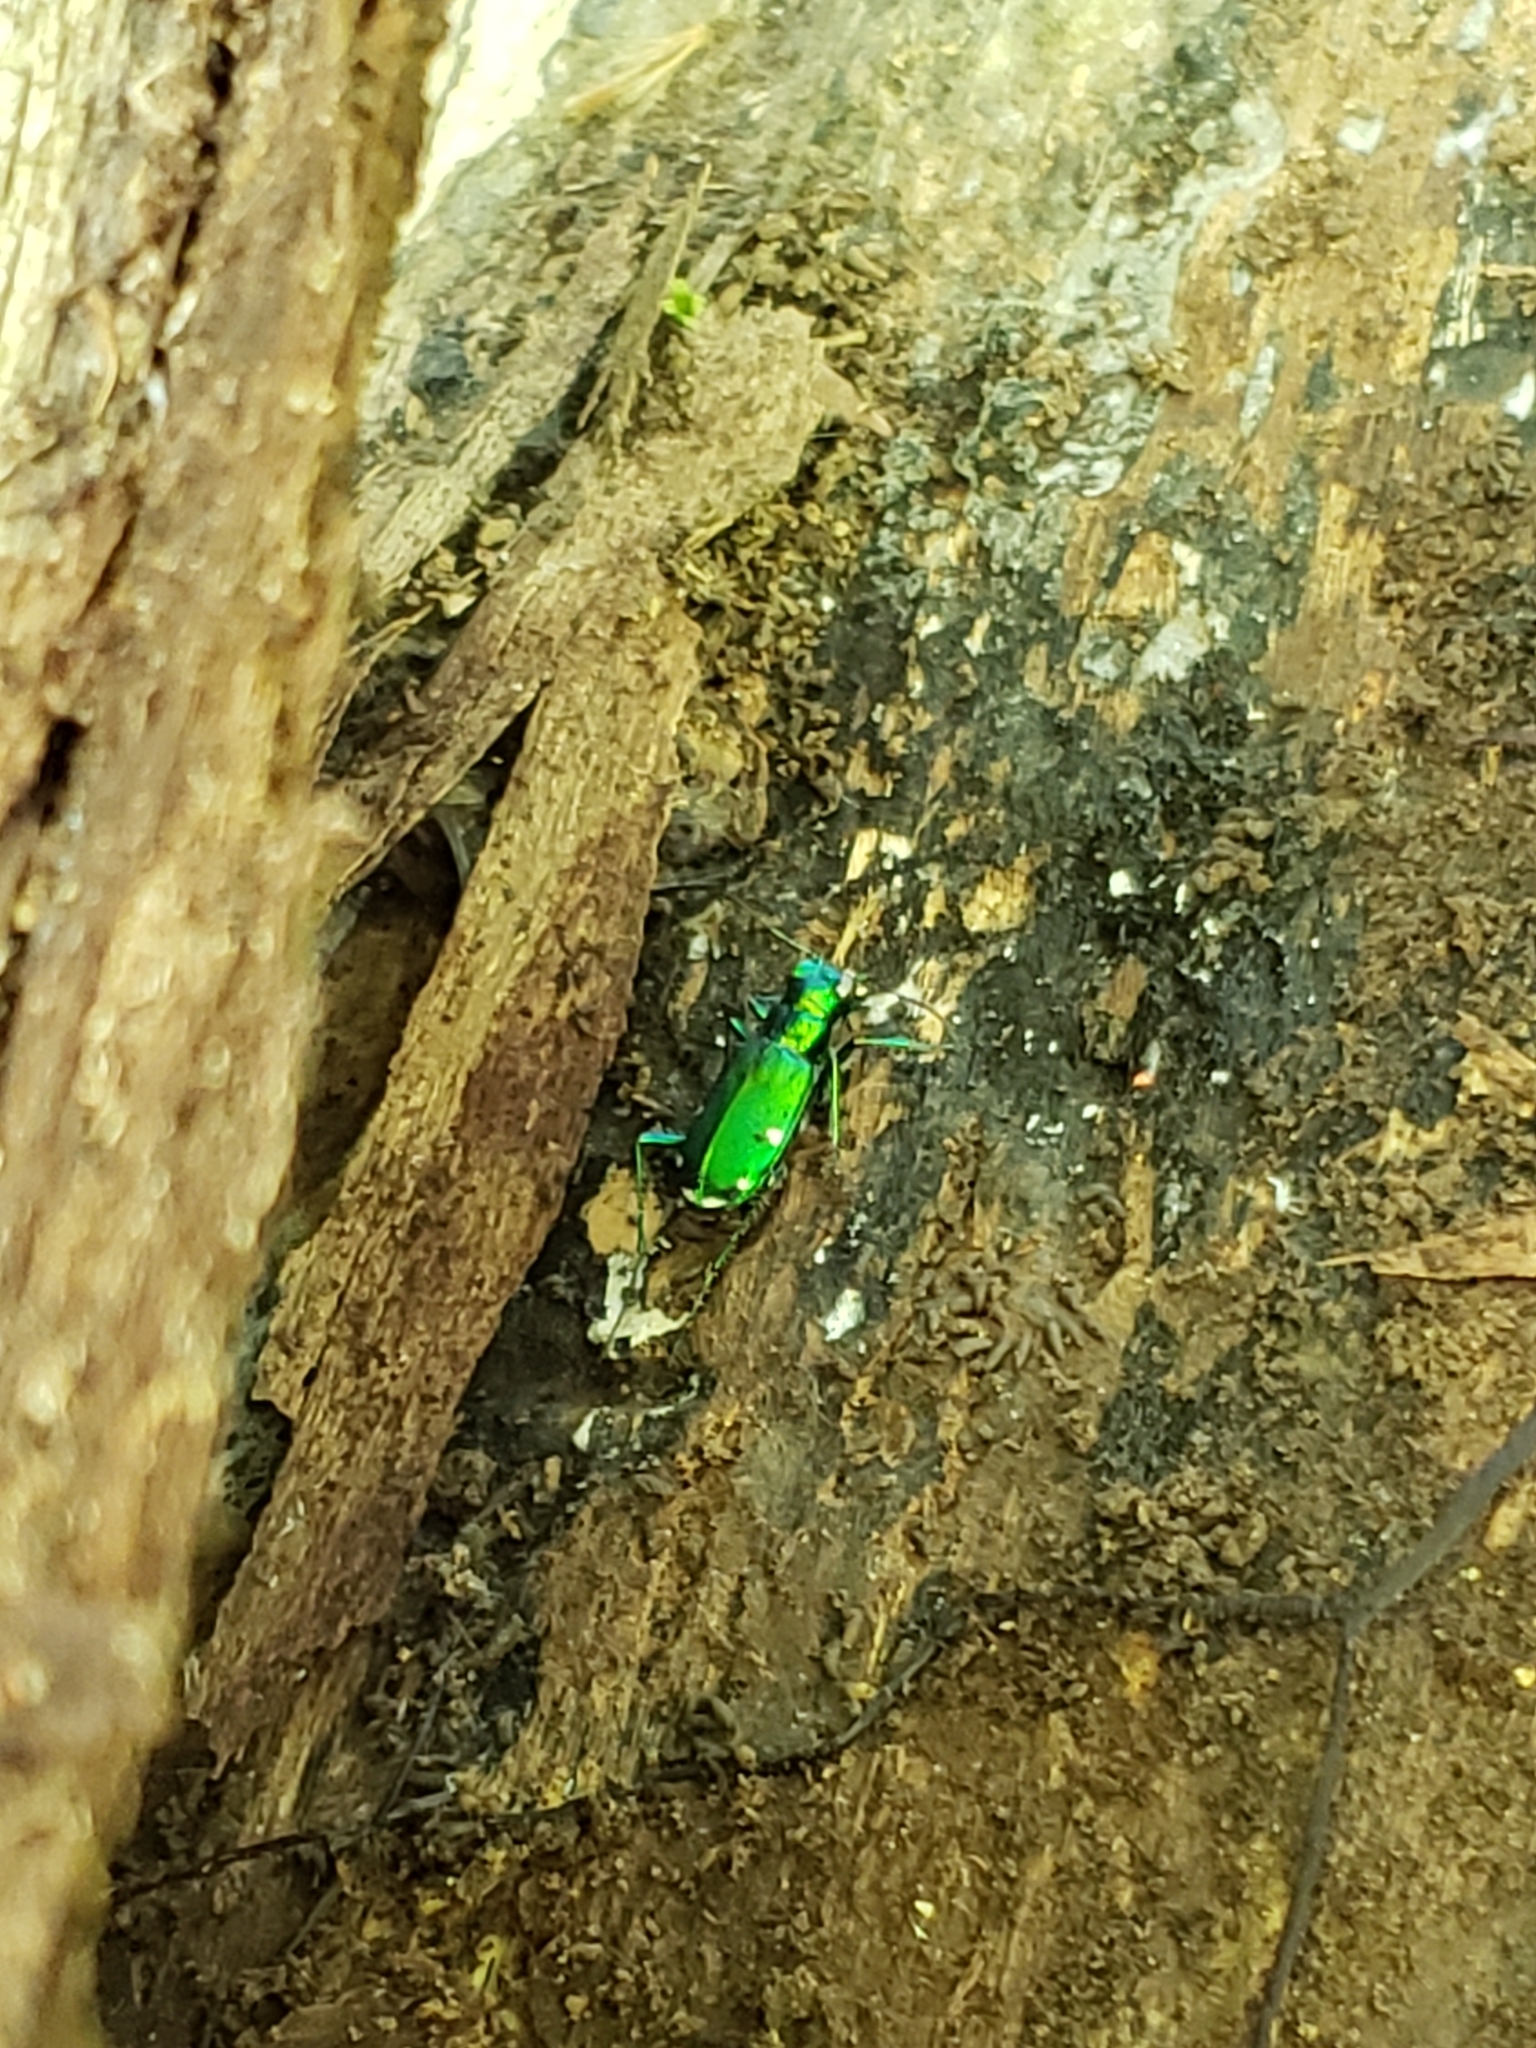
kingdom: Animalia
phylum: Arthropoda
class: Insecta
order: Coleoptera
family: Carabidae
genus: Cicindela
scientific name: Cicindela sexguttata
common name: Six-spotted tiger beetle
